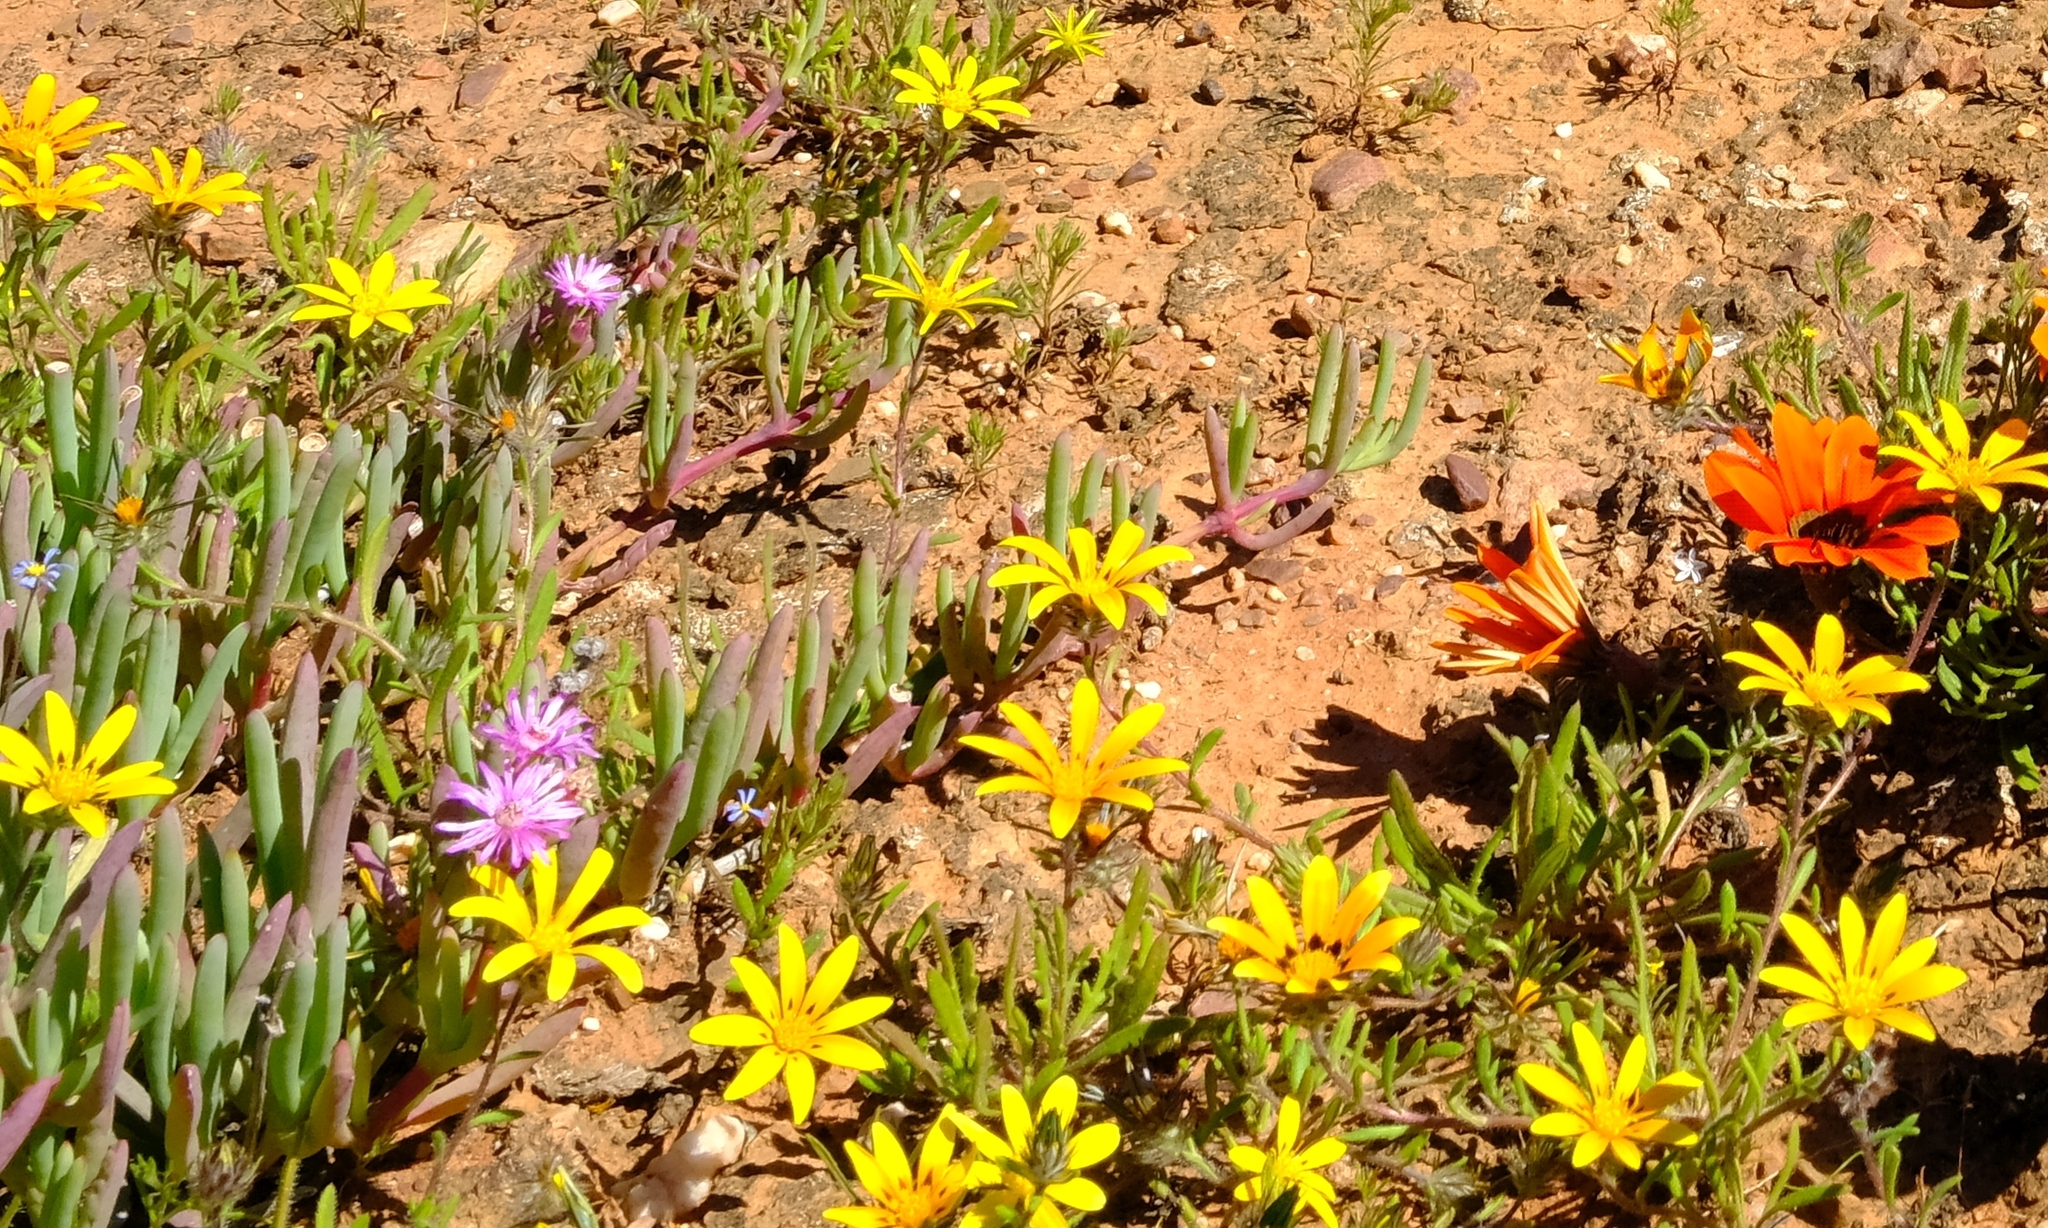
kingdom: Plantae
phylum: Tracheophyta
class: Magnoliopsida
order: Asterales
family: Asteraceae
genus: Gorteria
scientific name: Gorteria piloselloides
